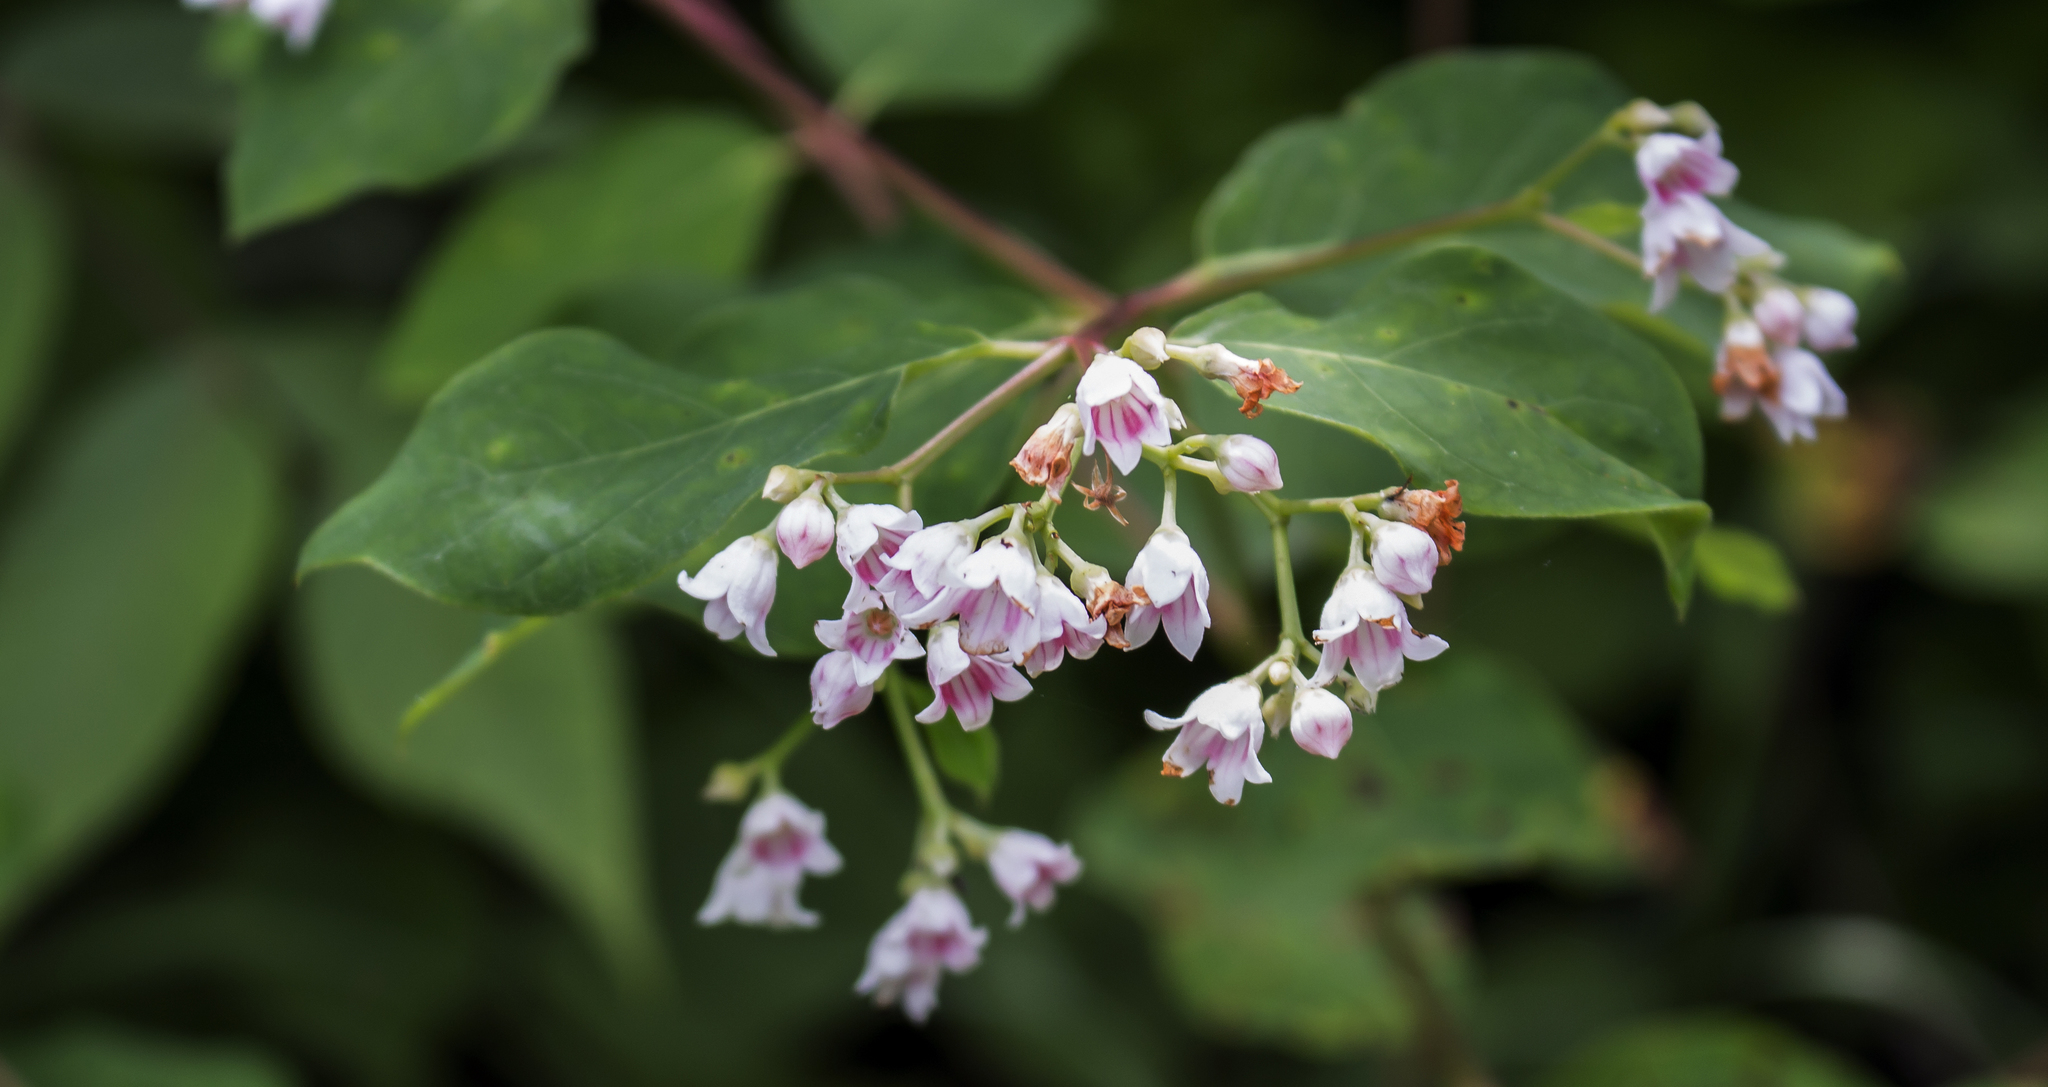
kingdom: Plantae
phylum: Tracheophyta
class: Magnoliopsida
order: Gentianales
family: Apocynaceae
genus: Apocynum
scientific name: Apocynum androsaemifolium
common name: Spreading dogbane
